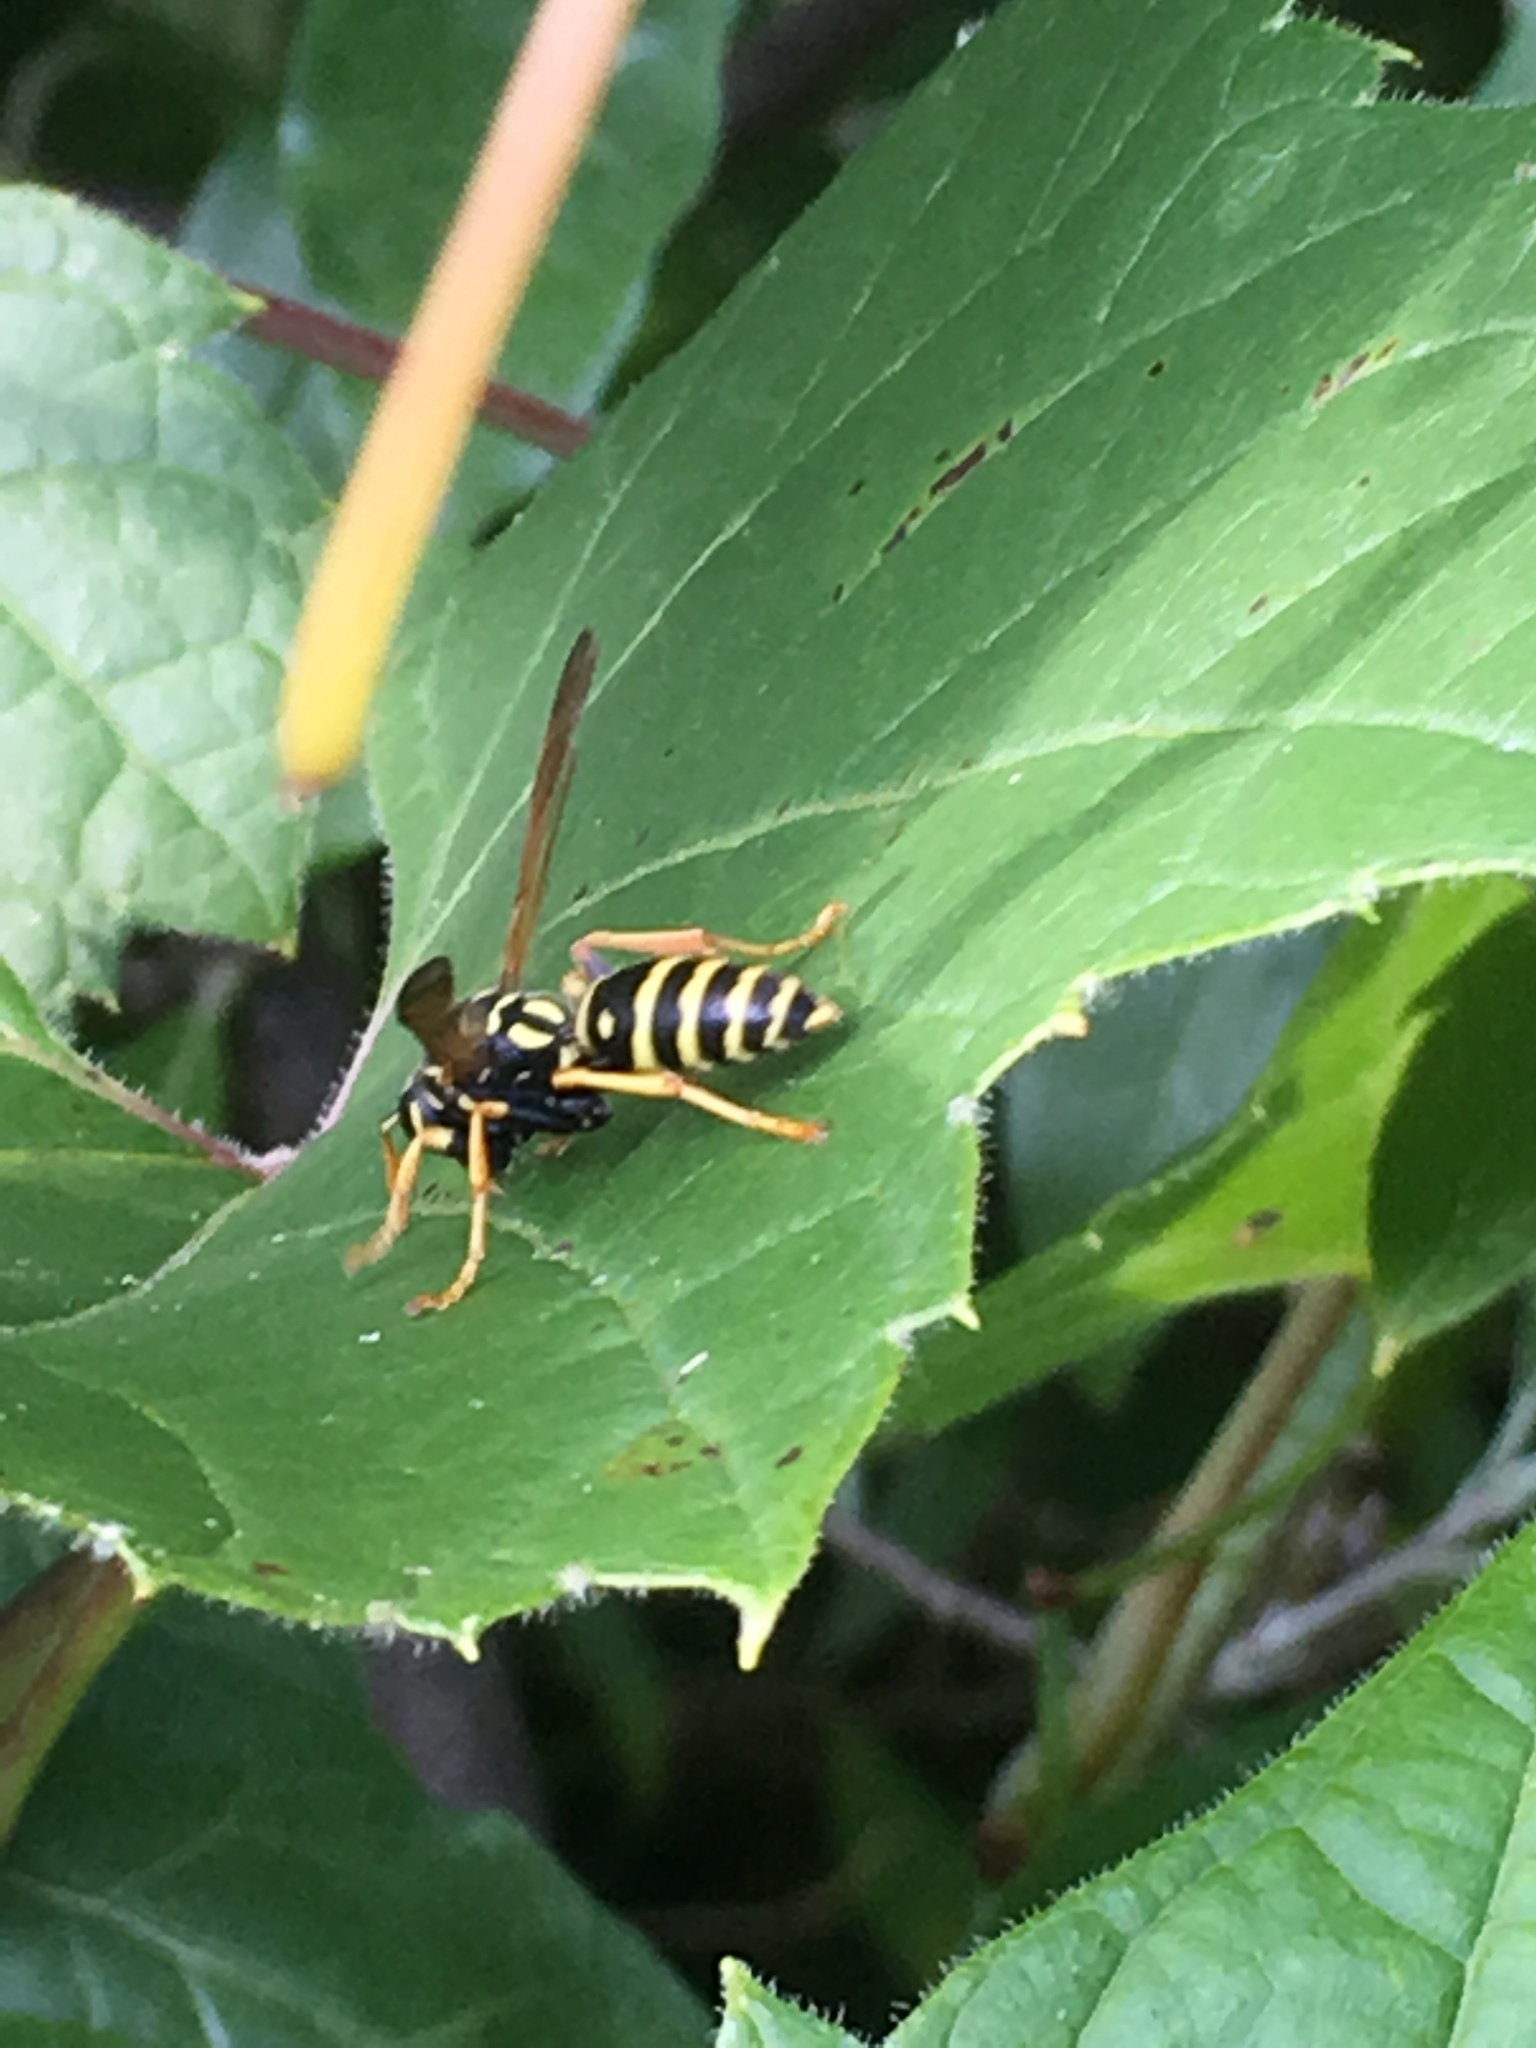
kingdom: Animalia
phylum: Arthropoda
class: Insecta
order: Hymenoptera
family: Eumenidae
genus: Polistes
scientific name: Polistes dominula
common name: Paper wasp
